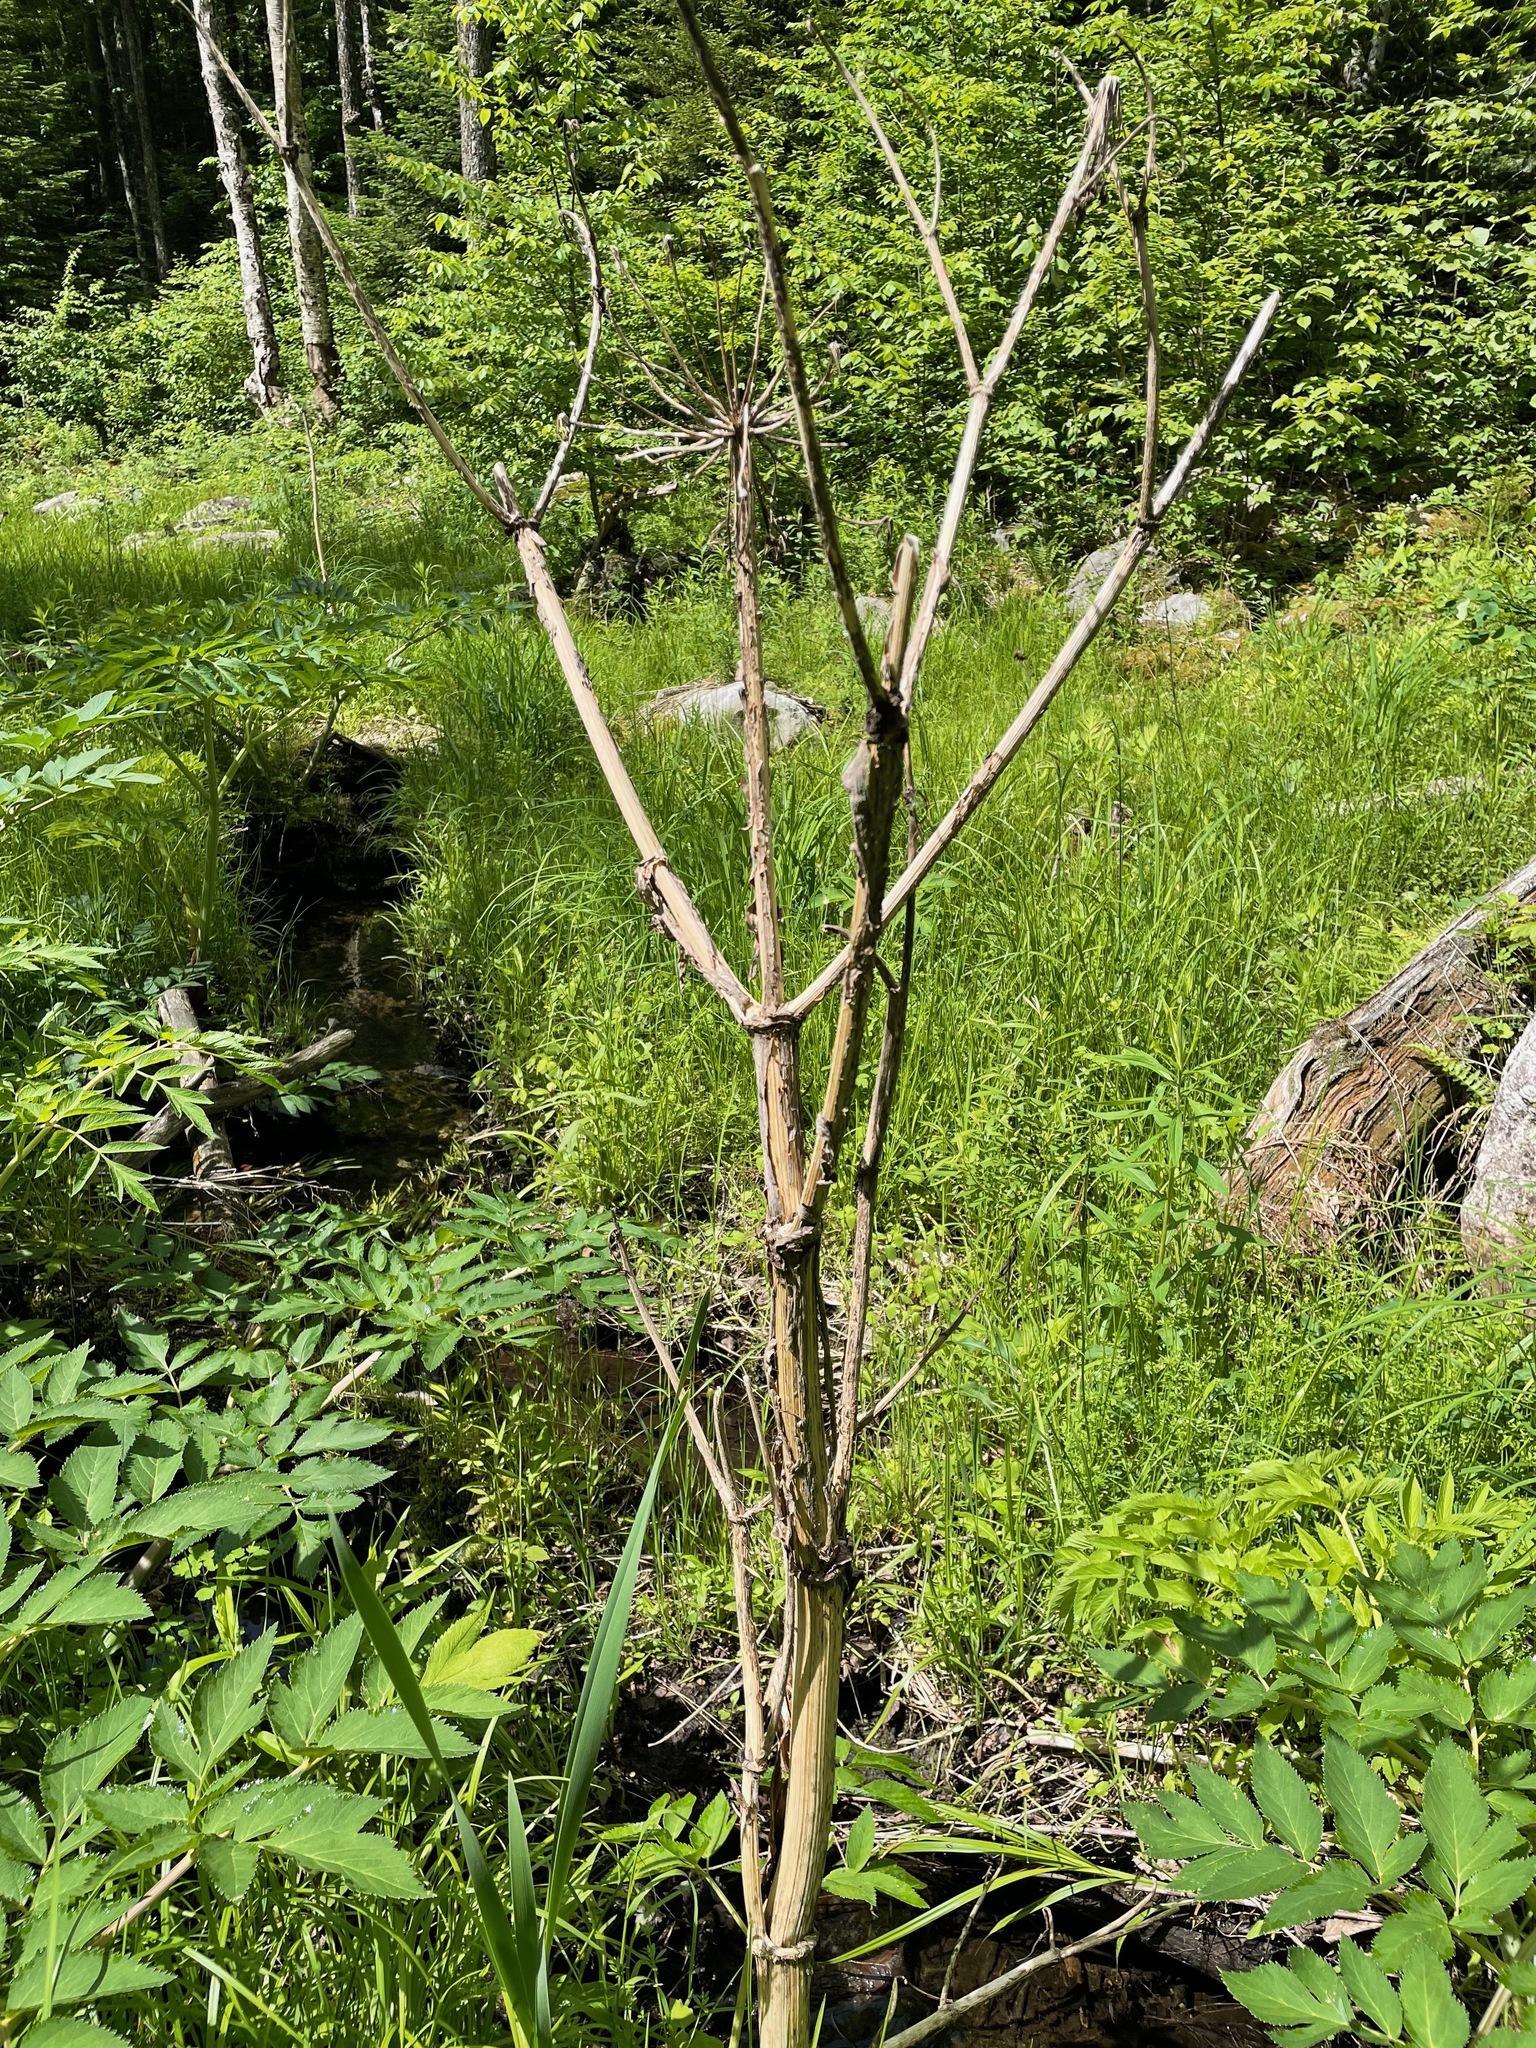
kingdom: Plantae
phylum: Tracheophyta
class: Magnoliopsida
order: Apiales
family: Apiaceae
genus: Angelica
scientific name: Angelica atropurpurea
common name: Great angelica
